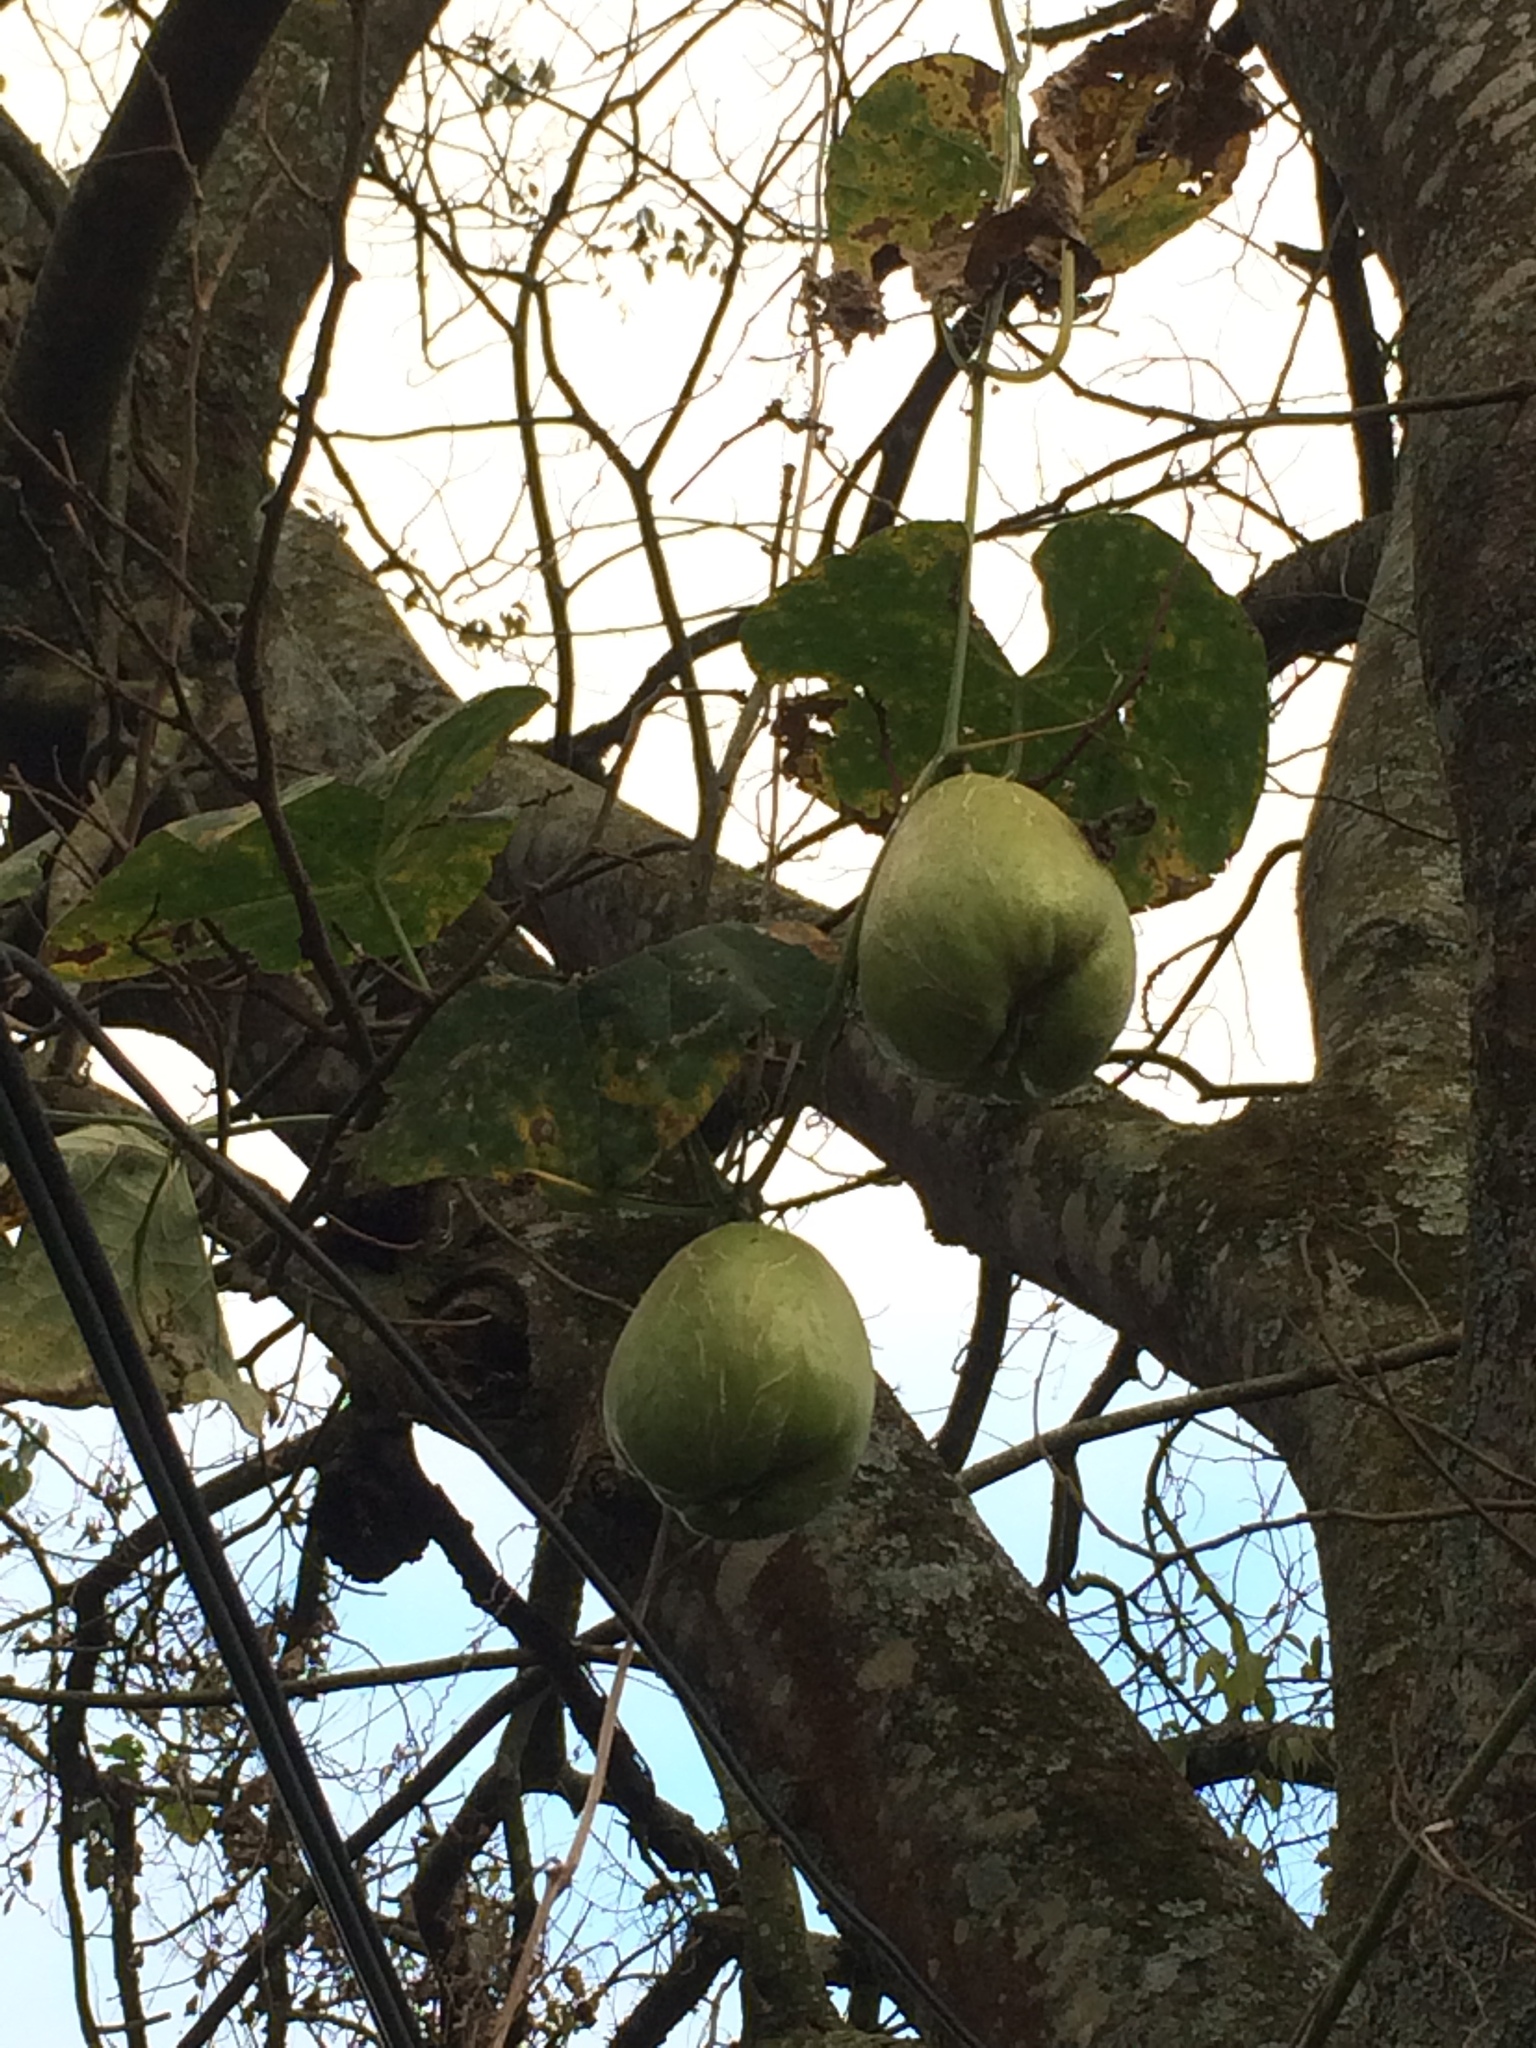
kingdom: Plantae
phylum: Tracheophyta
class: Magnoliopsida
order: Cucurbitales
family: Cucurbitaceae
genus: Sechium
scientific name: Sechium edule
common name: Chayote
